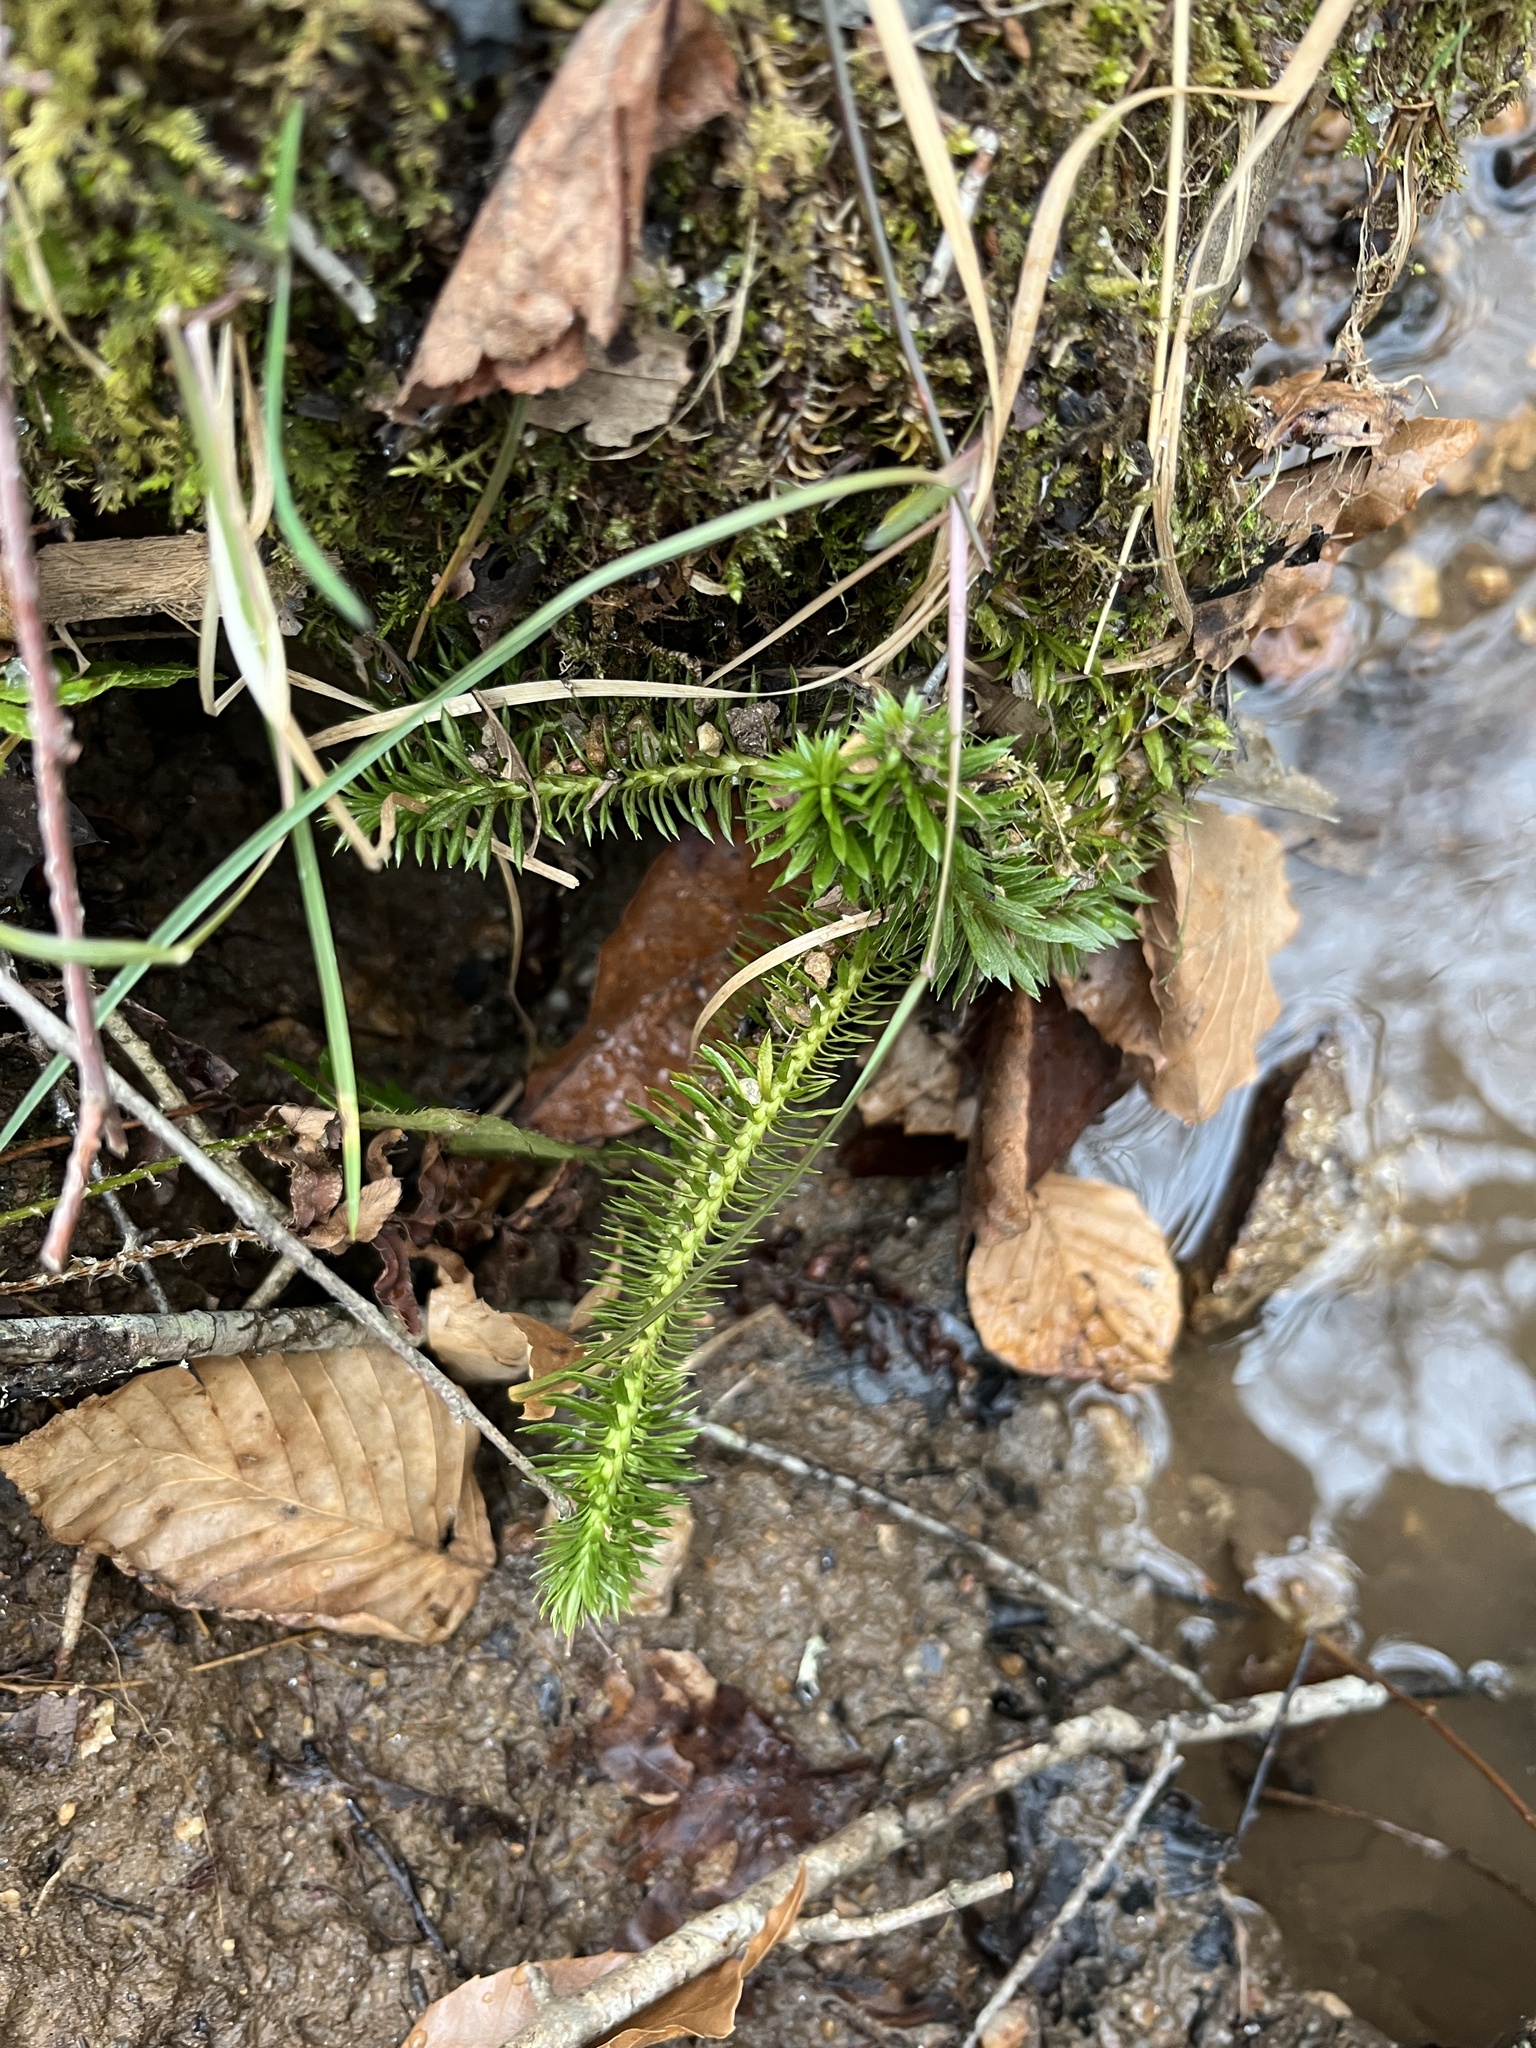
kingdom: Plantae
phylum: Tracheophyta
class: Lycopodiopsida
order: Lycopodiales
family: Lycopodiaceae
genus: Huperzia
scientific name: Huperzia lucidula
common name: Shining clubmoss
